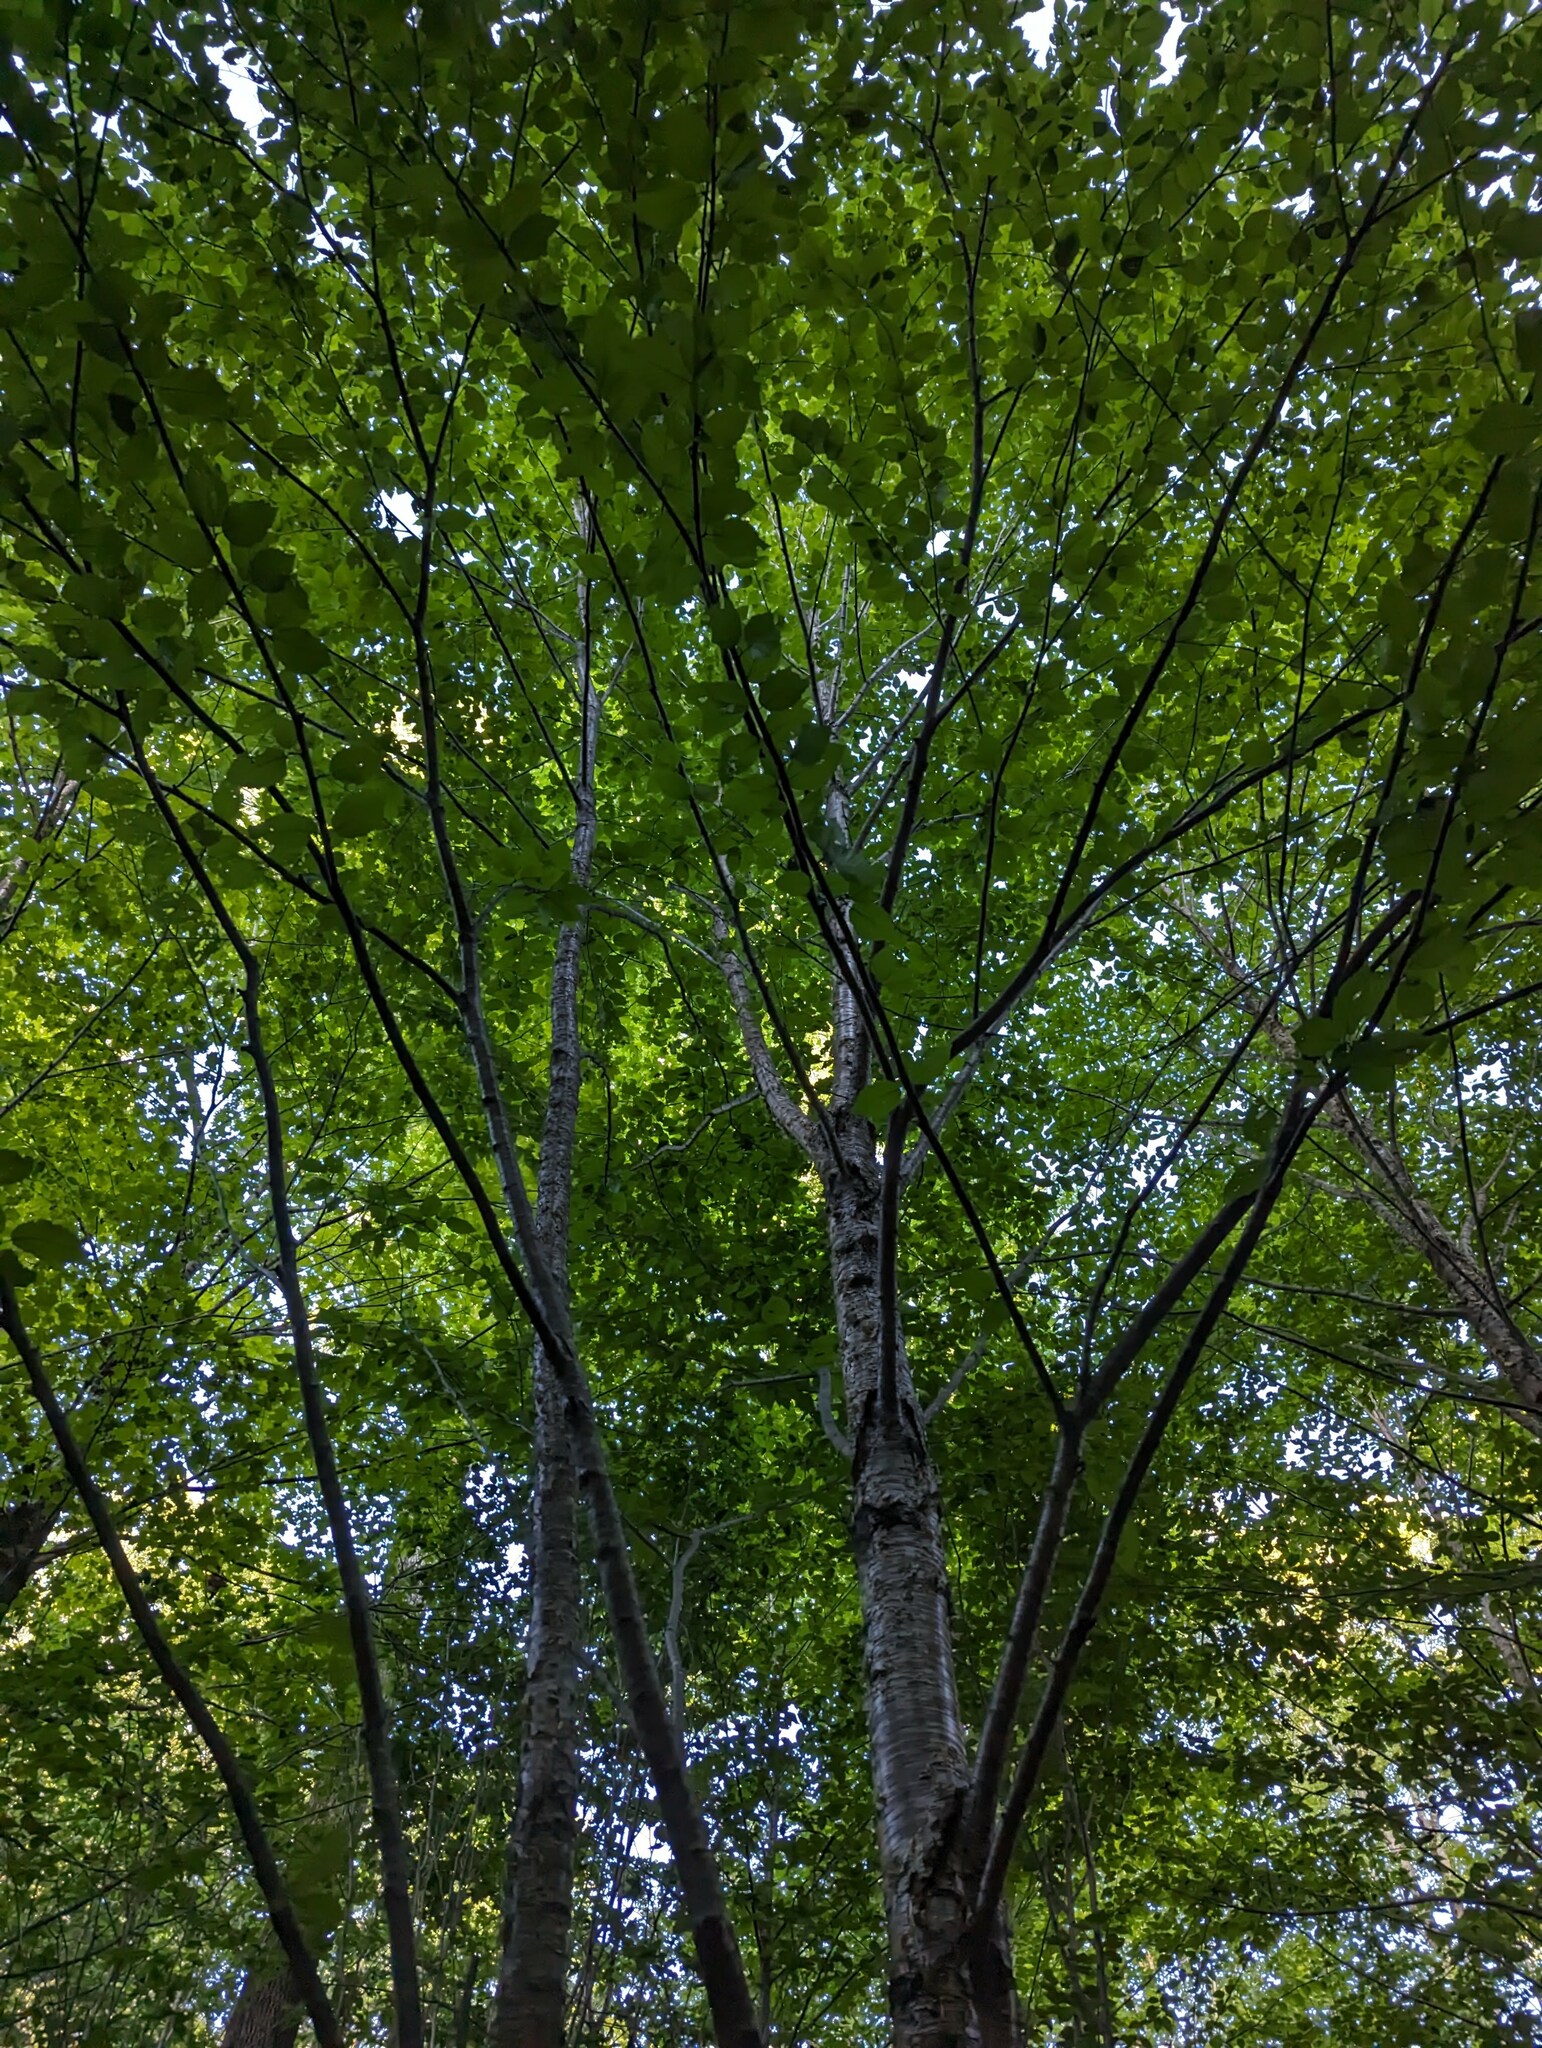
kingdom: Plantae
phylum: Tracheophyta
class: Magnoliopsida
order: Fagales
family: Betulaceae
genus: Betula
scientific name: Betula alleghaniensis
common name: Yellow birch
